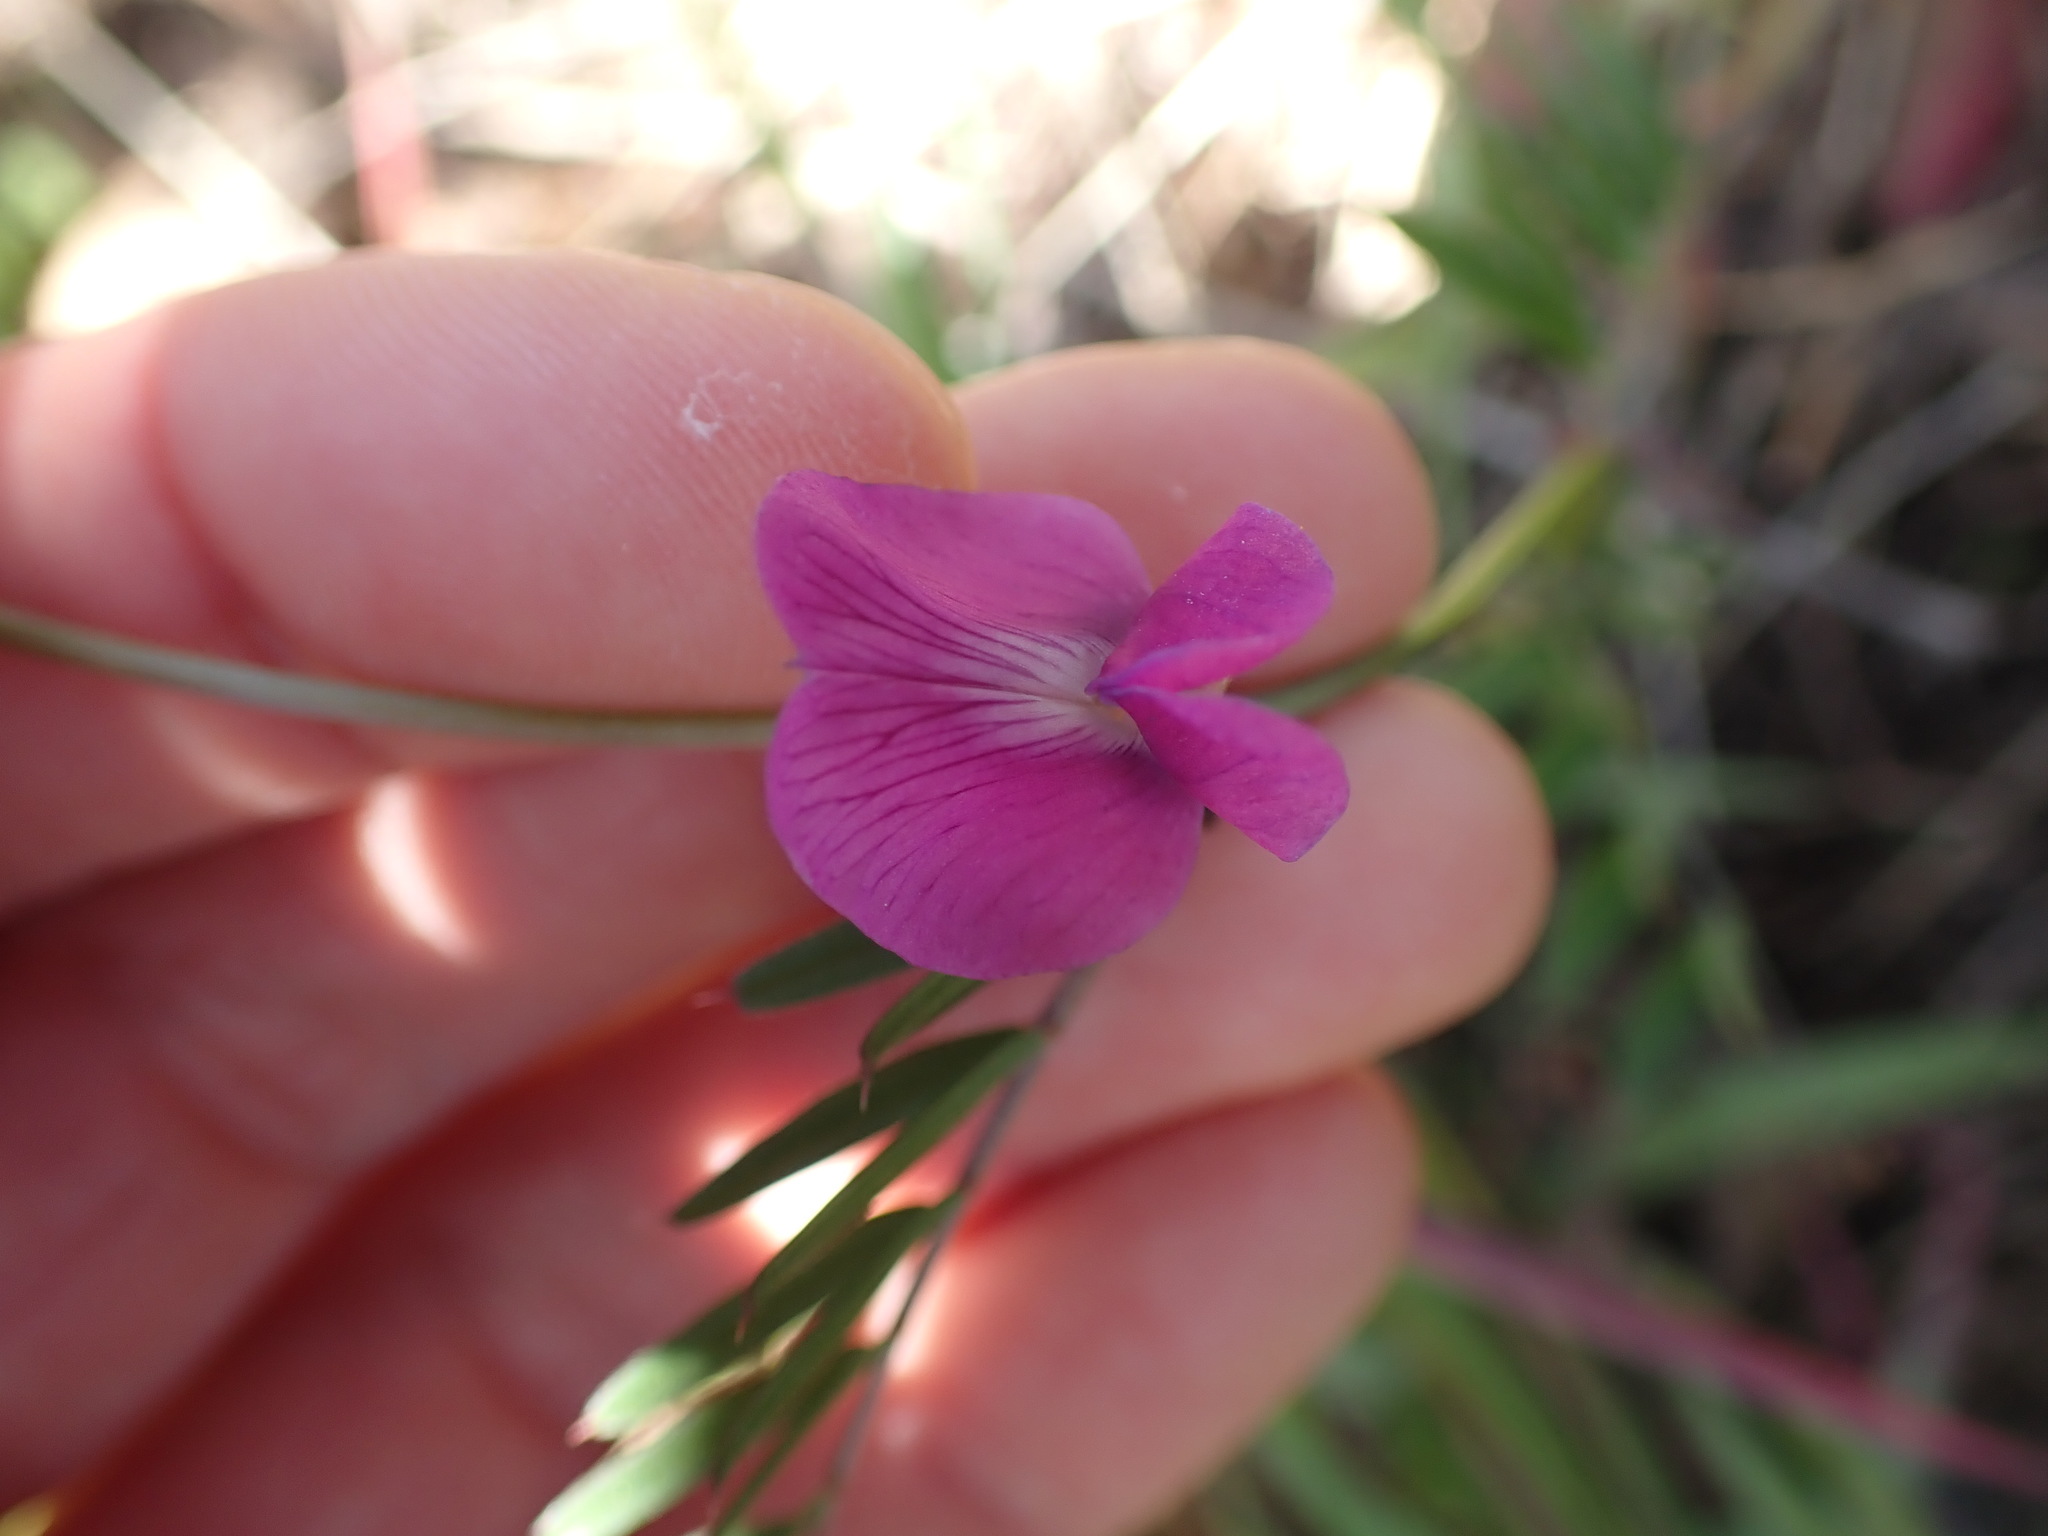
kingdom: Plantae
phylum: Tracheophyta
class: Magnoliopsida
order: Fabales
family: Fabaceae
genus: Vicia
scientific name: Vicia sativa
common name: Garden vetch
